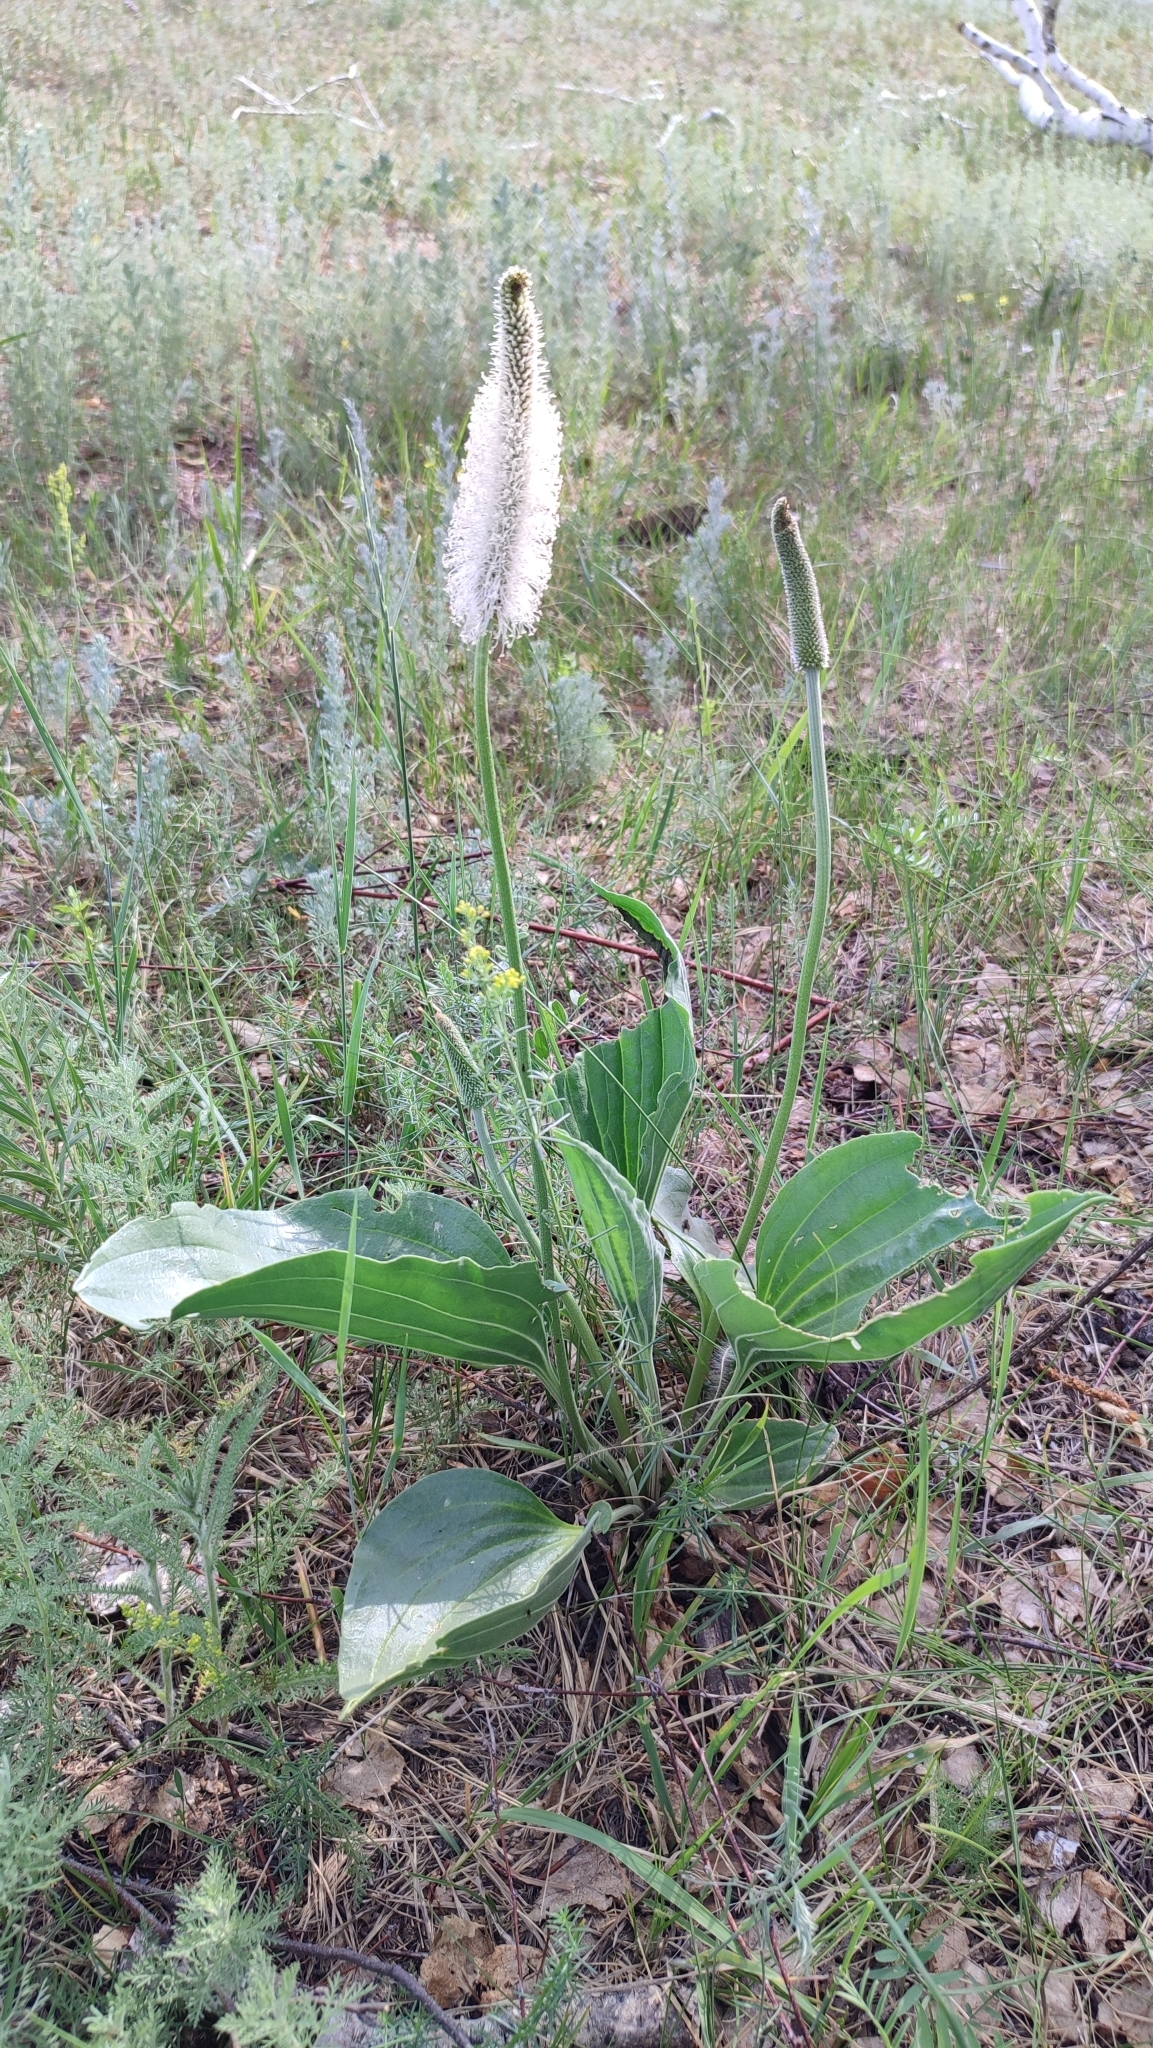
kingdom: Plantae
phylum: Tracheophyta
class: Magnoliopsida
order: Lamiales
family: Plantaginaceae
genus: Plantago
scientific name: Plantago maxima
